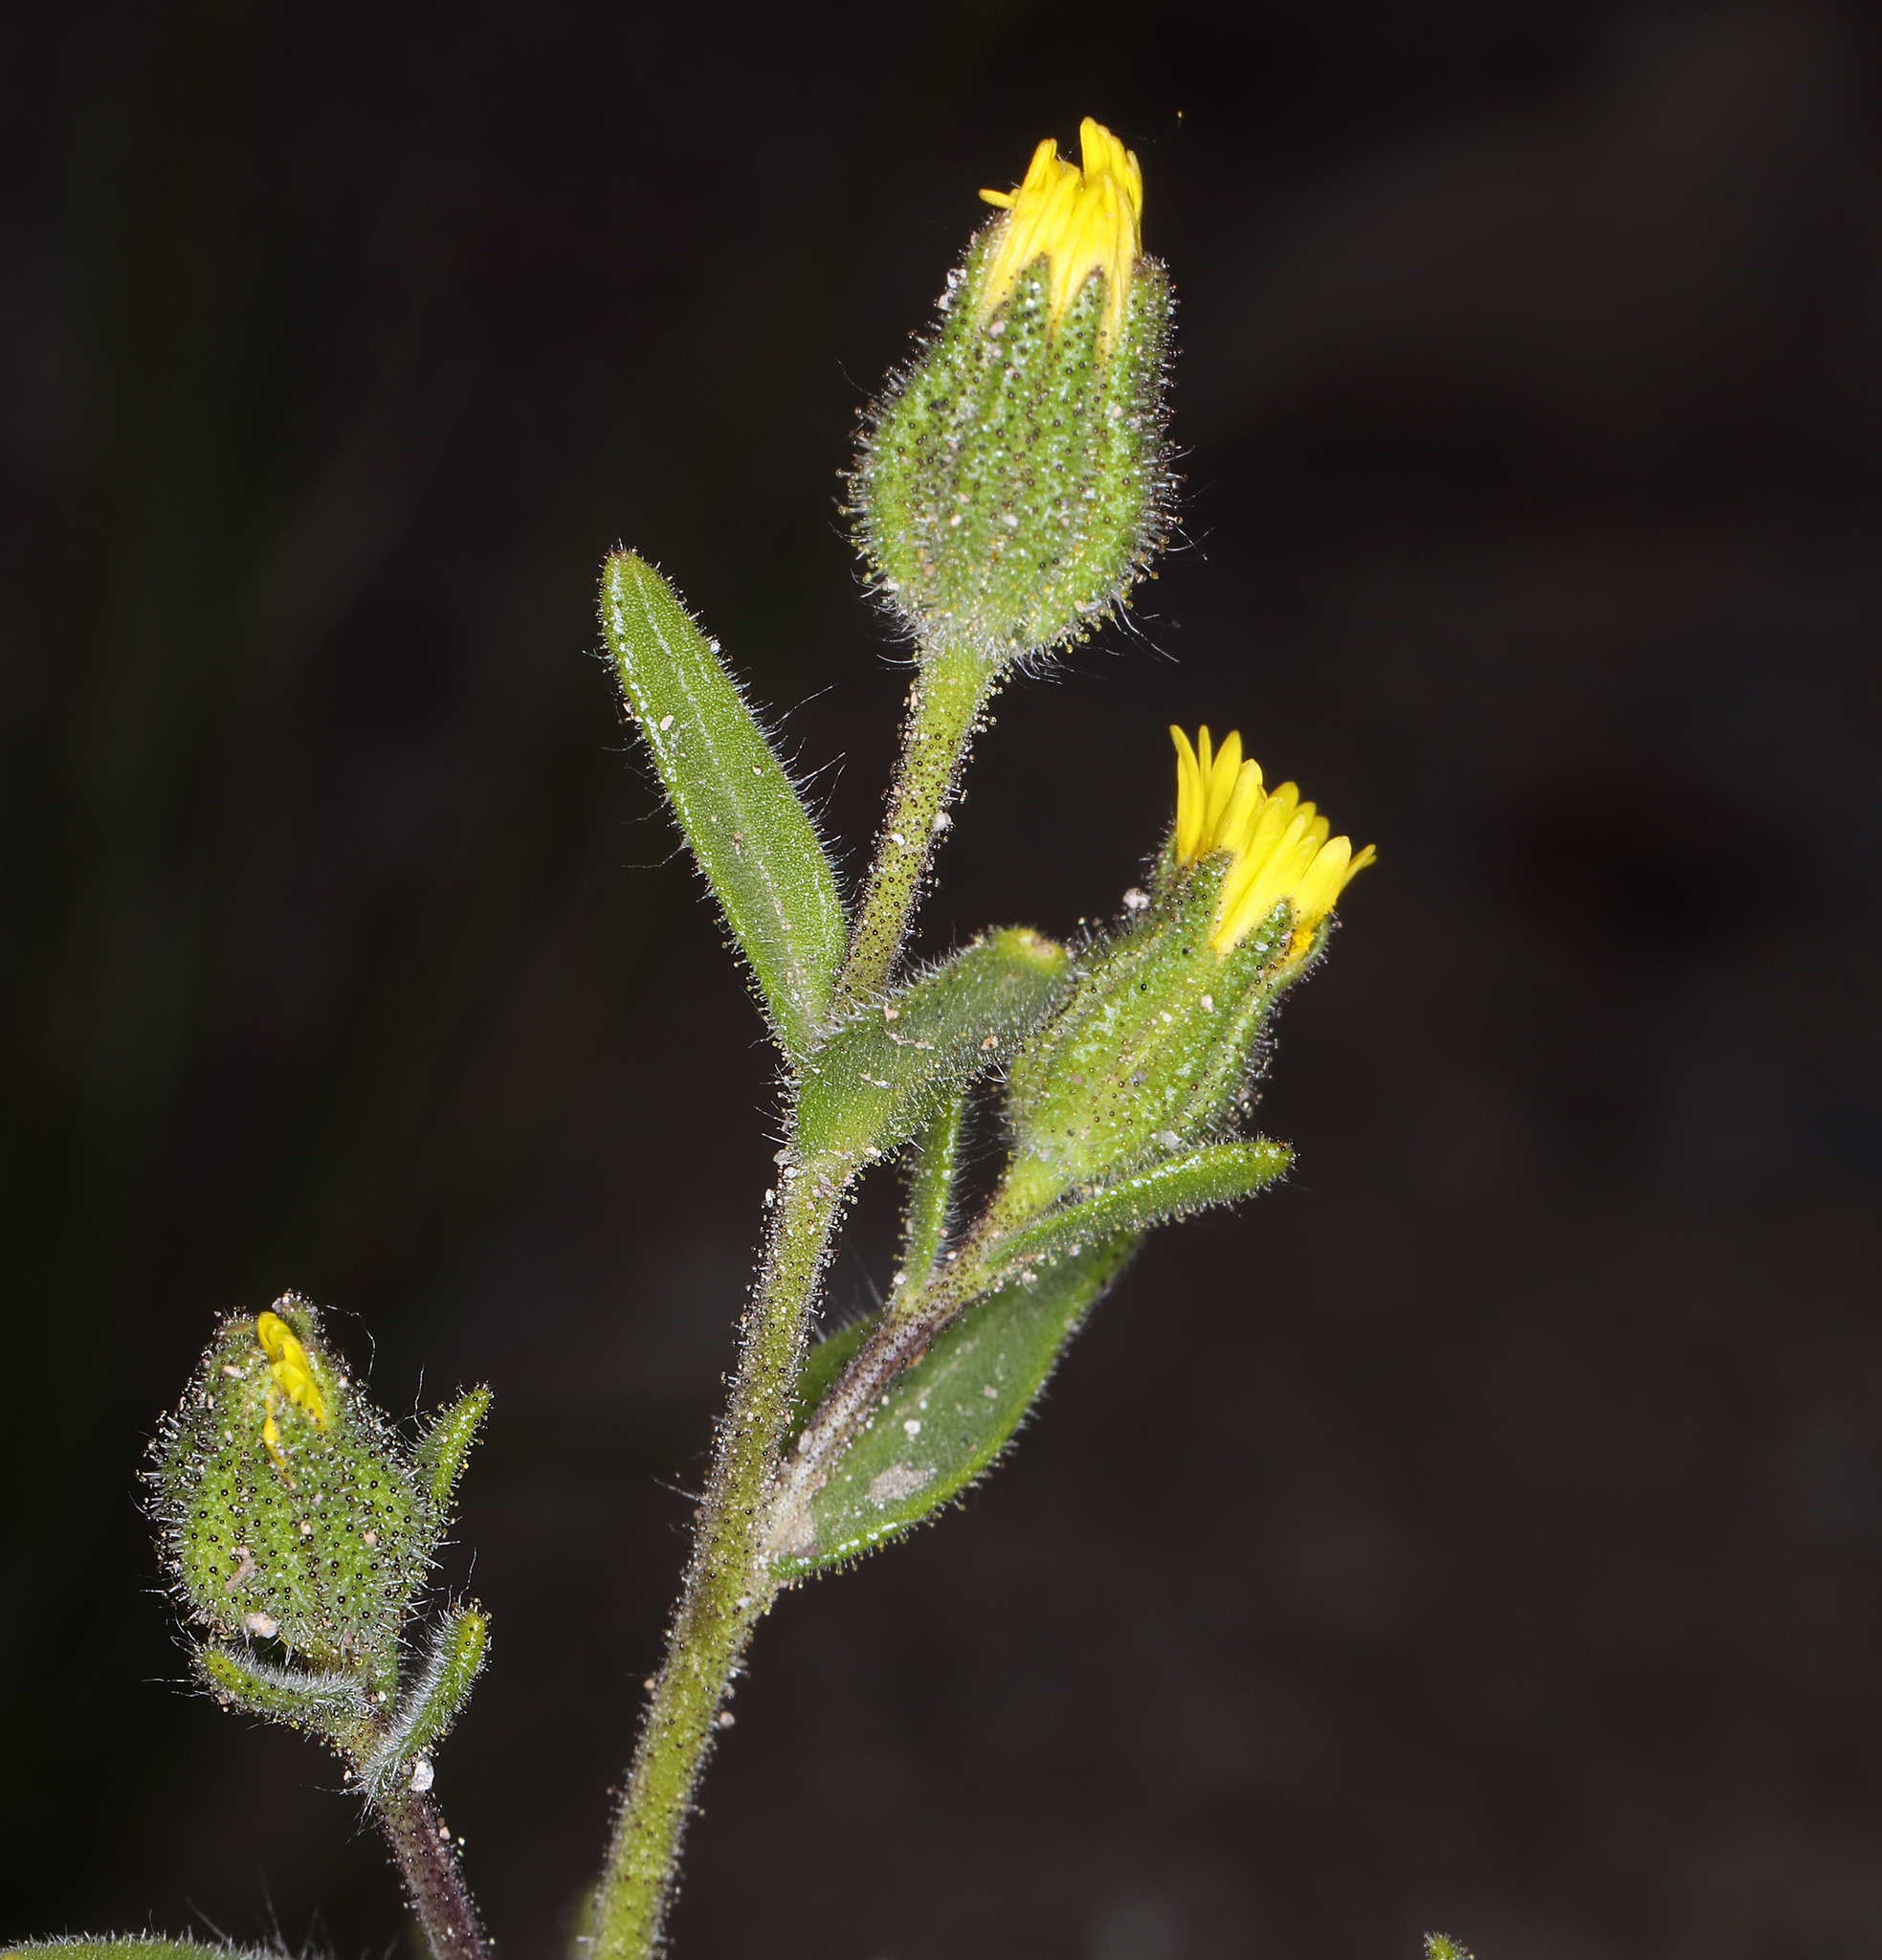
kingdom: Plantae
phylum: Tracheophyta
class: Magnoliopsida
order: Asterales
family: Asteraceae
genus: Madia
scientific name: Madia gracilis
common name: Grassy tarweed
